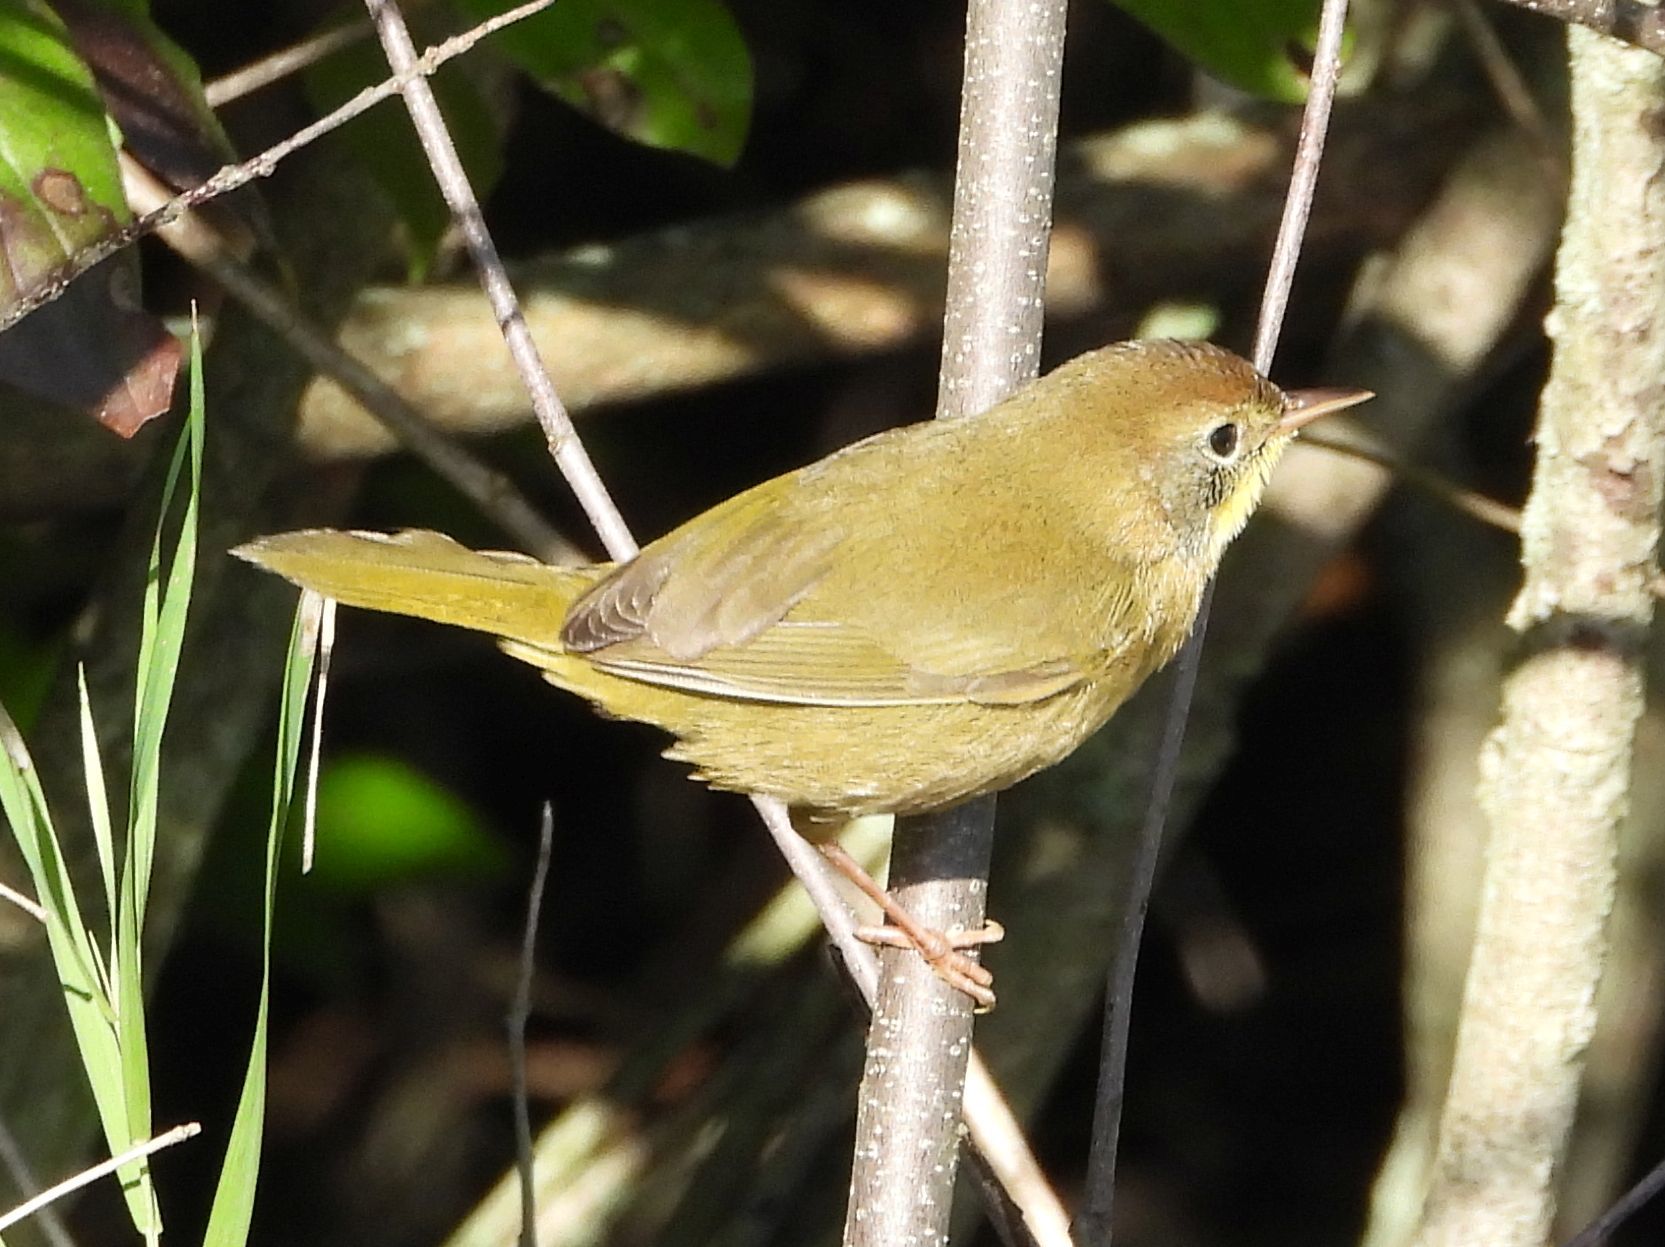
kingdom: Animalia
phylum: Chordata
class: Aves
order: Passeriformes
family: Parulidae
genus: Geothlypis
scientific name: Geothlypis trichas
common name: Common yellowthroat
